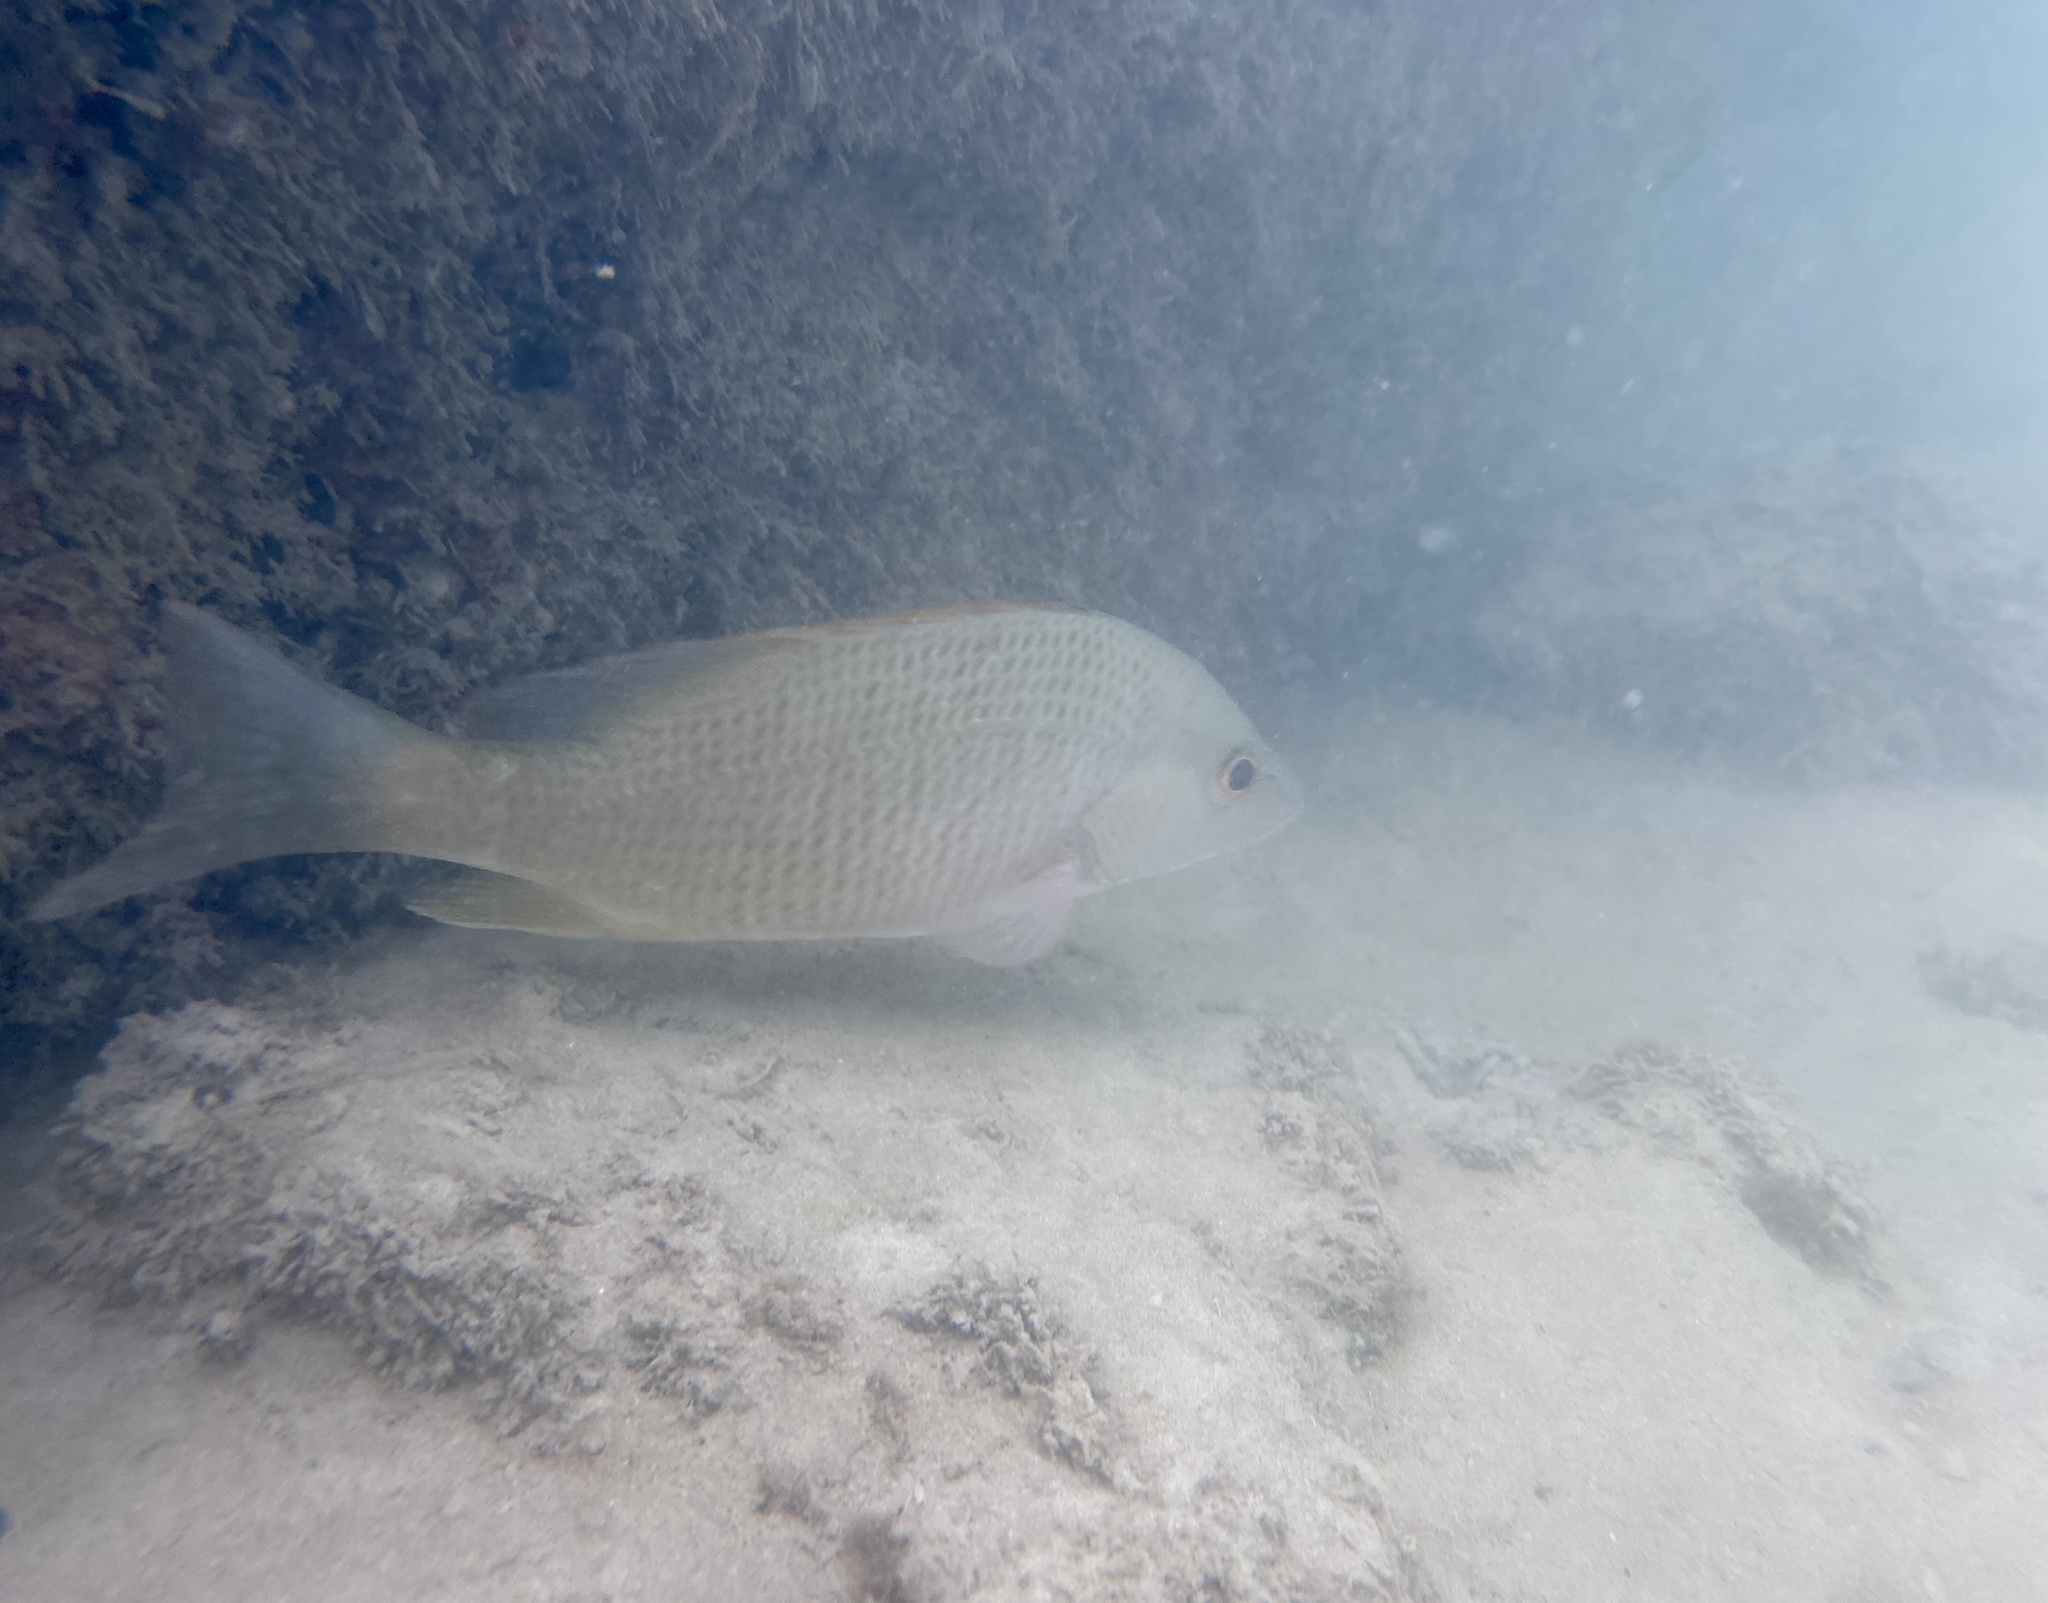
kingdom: Animalia
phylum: Chordata
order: Perciformes
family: Lutjanidae
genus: Lutjanus
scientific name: Lutjanus argentiventris
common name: Yellow snapper
